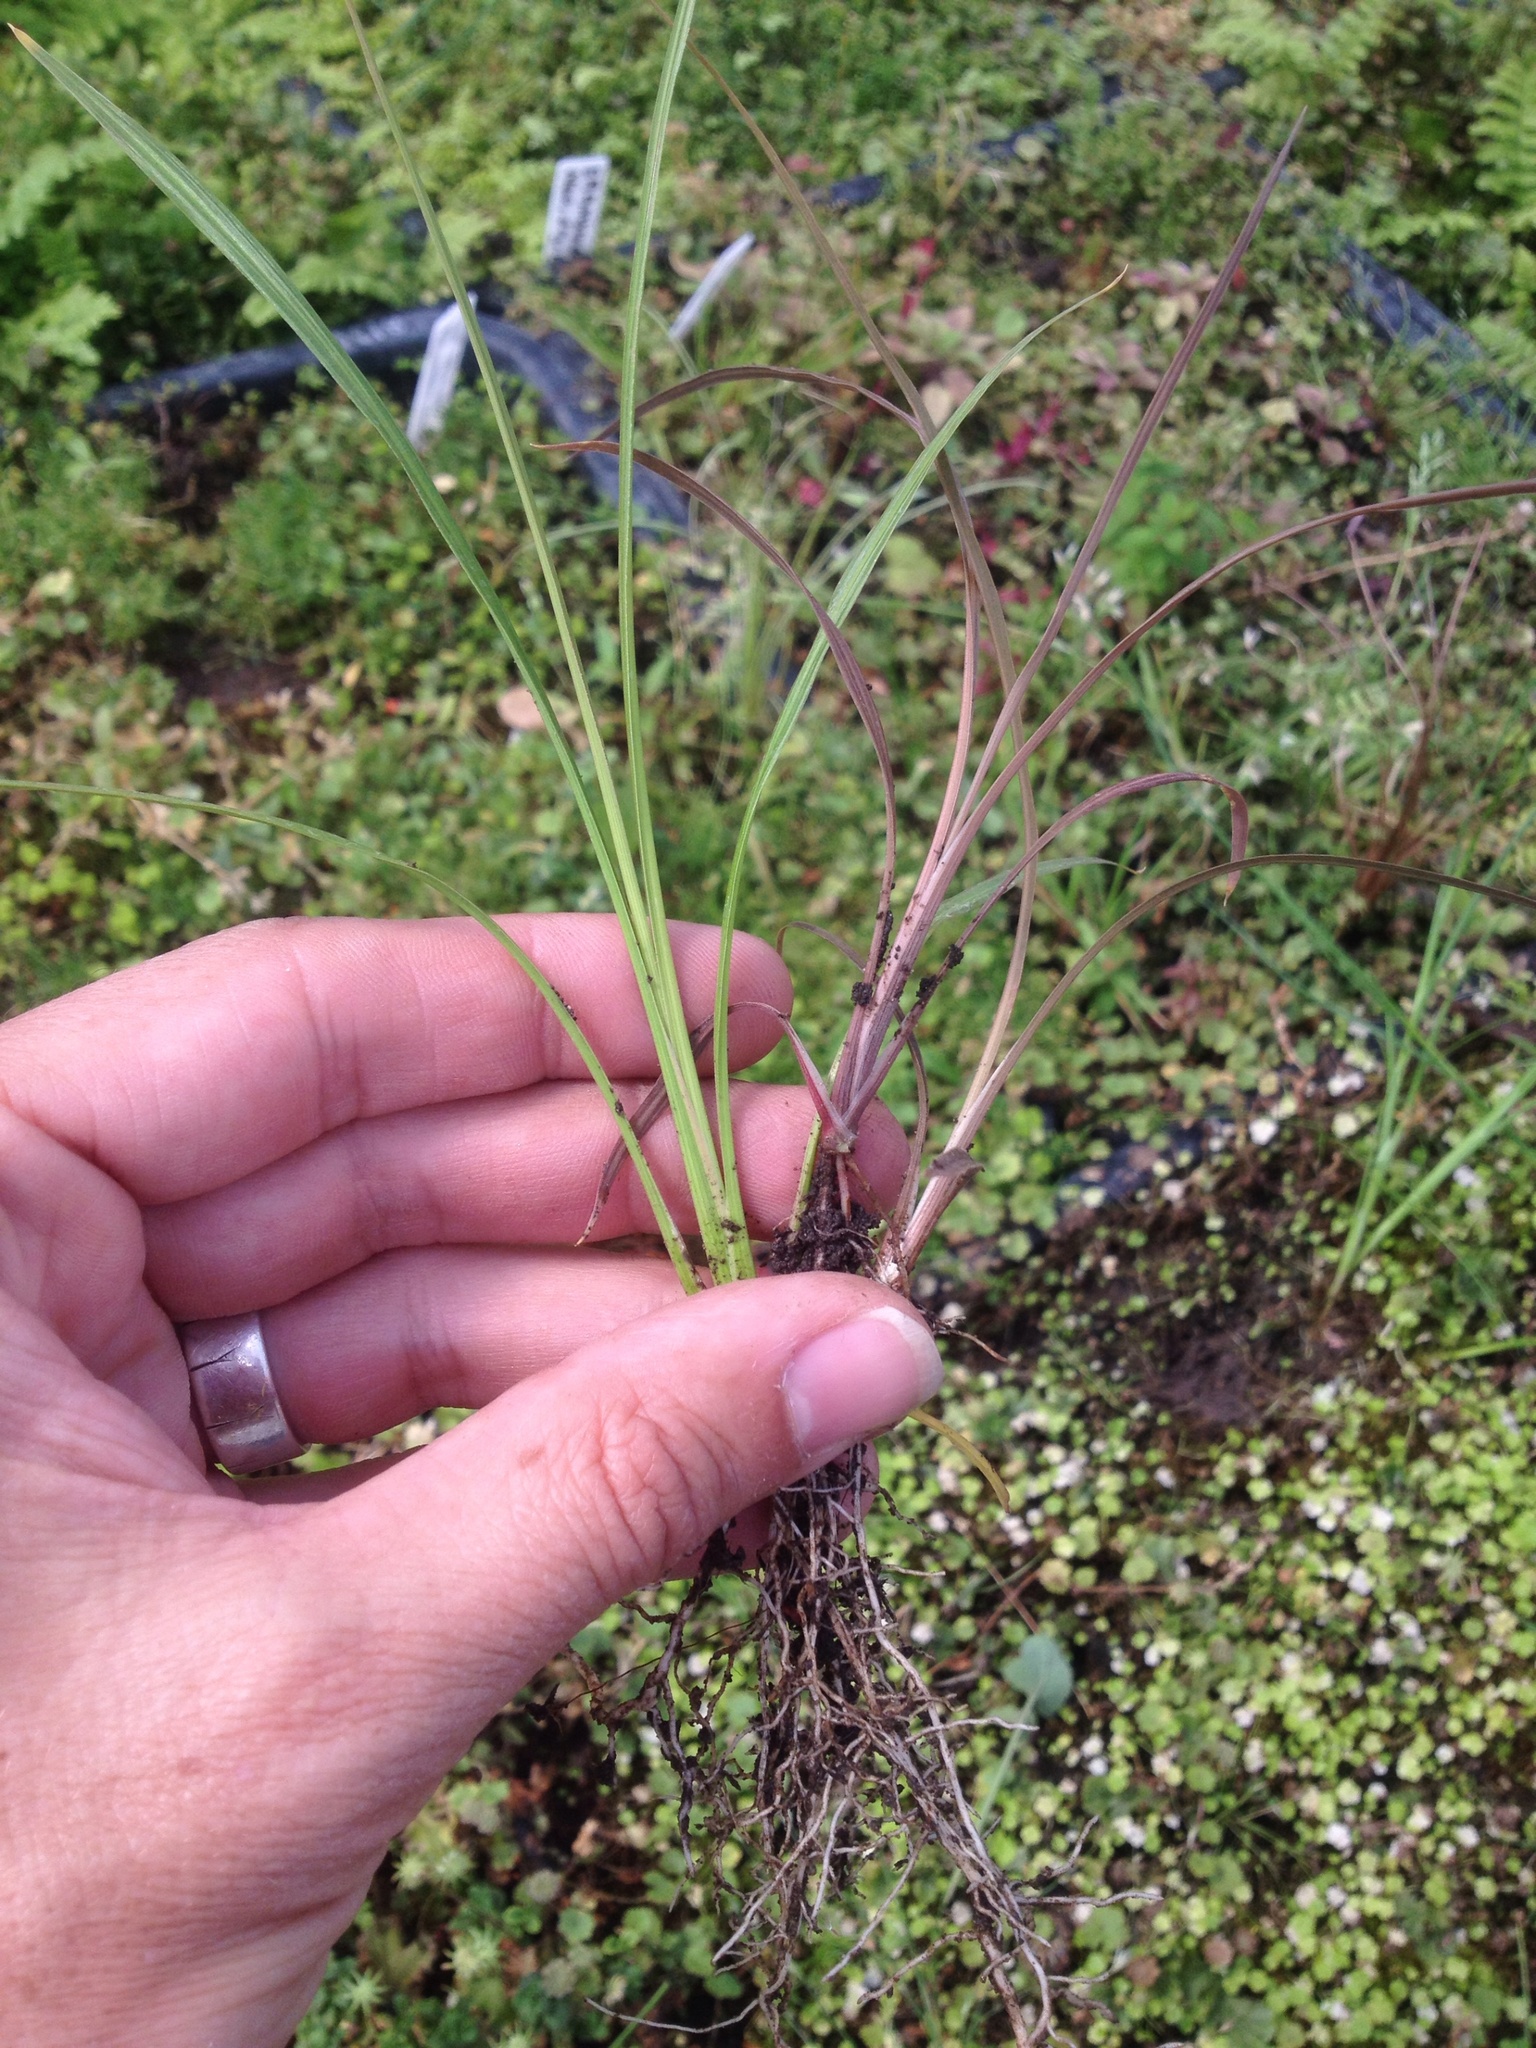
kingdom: Plantae
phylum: Tracheophyta
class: Liliopsida
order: Asparagales
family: Asparagaceae
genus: Cordyline
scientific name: Cordyline australis
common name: Cabbage-palm
